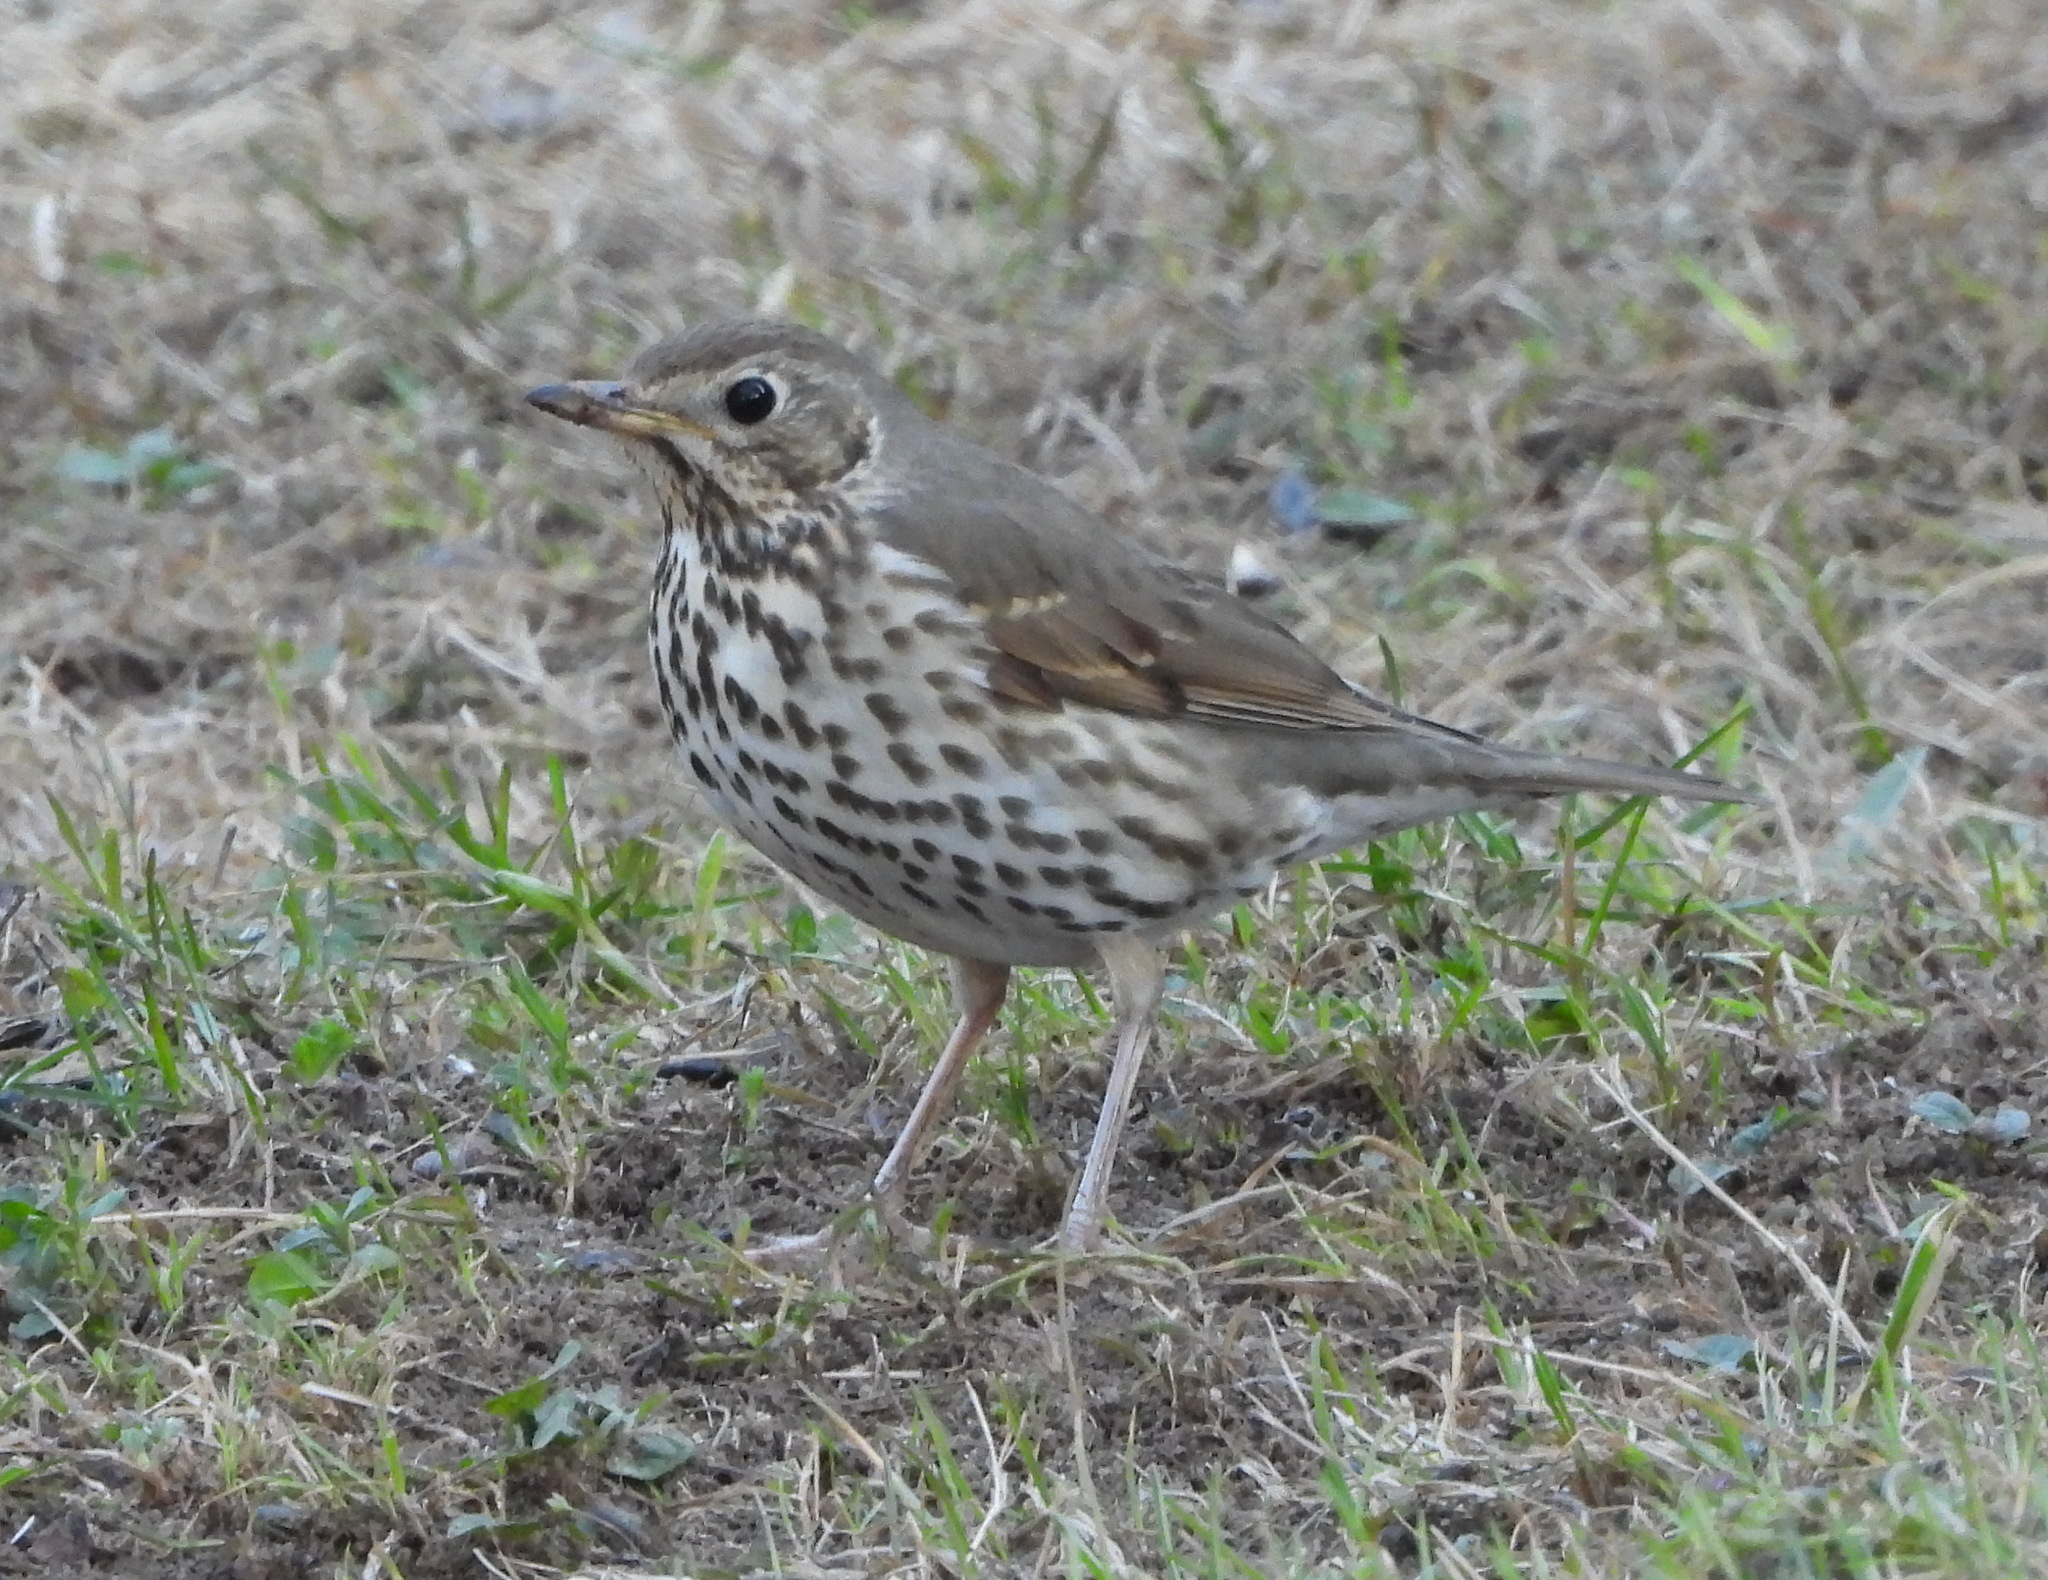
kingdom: Animalia
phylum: Chordata
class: Aves
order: Passeriformes
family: Turdidae
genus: Turdus
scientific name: Turdus philomelos
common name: Song thrush
